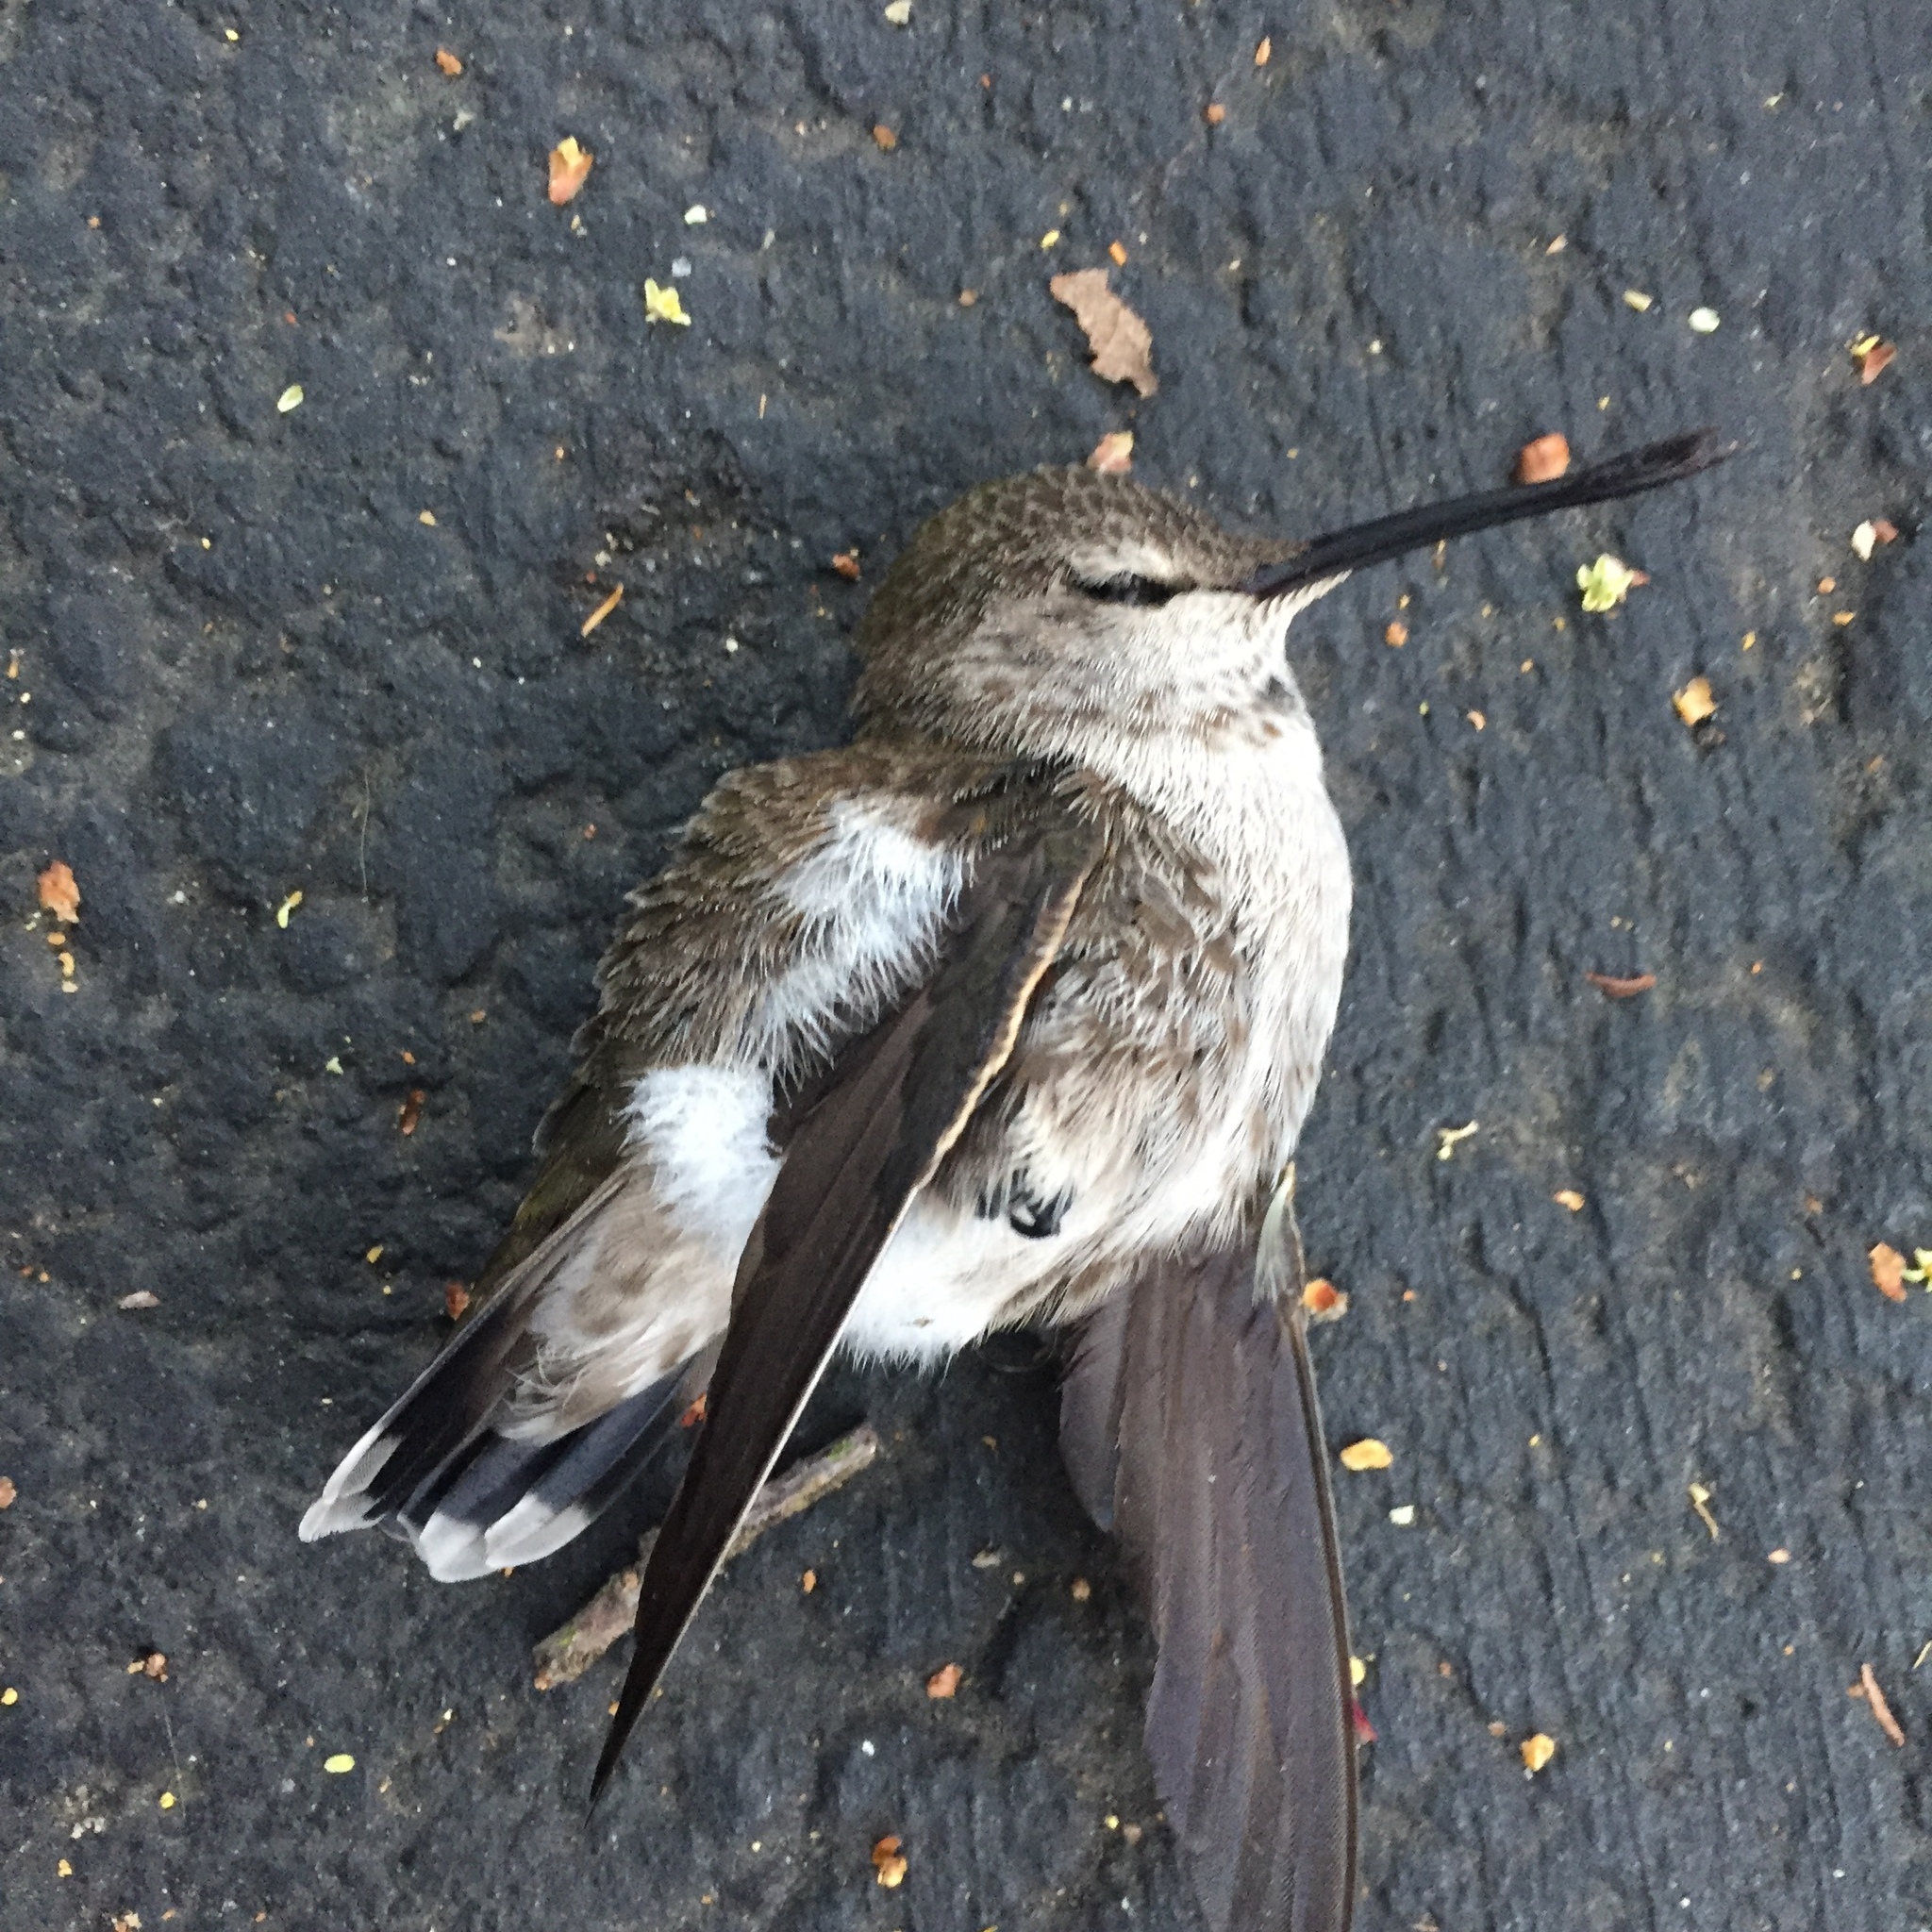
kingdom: Animalia
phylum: Chordata
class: Aves
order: Apodiformes
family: Trochilidae
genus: Calypte
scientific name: Calypte anna
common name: Anna's hummingbird
